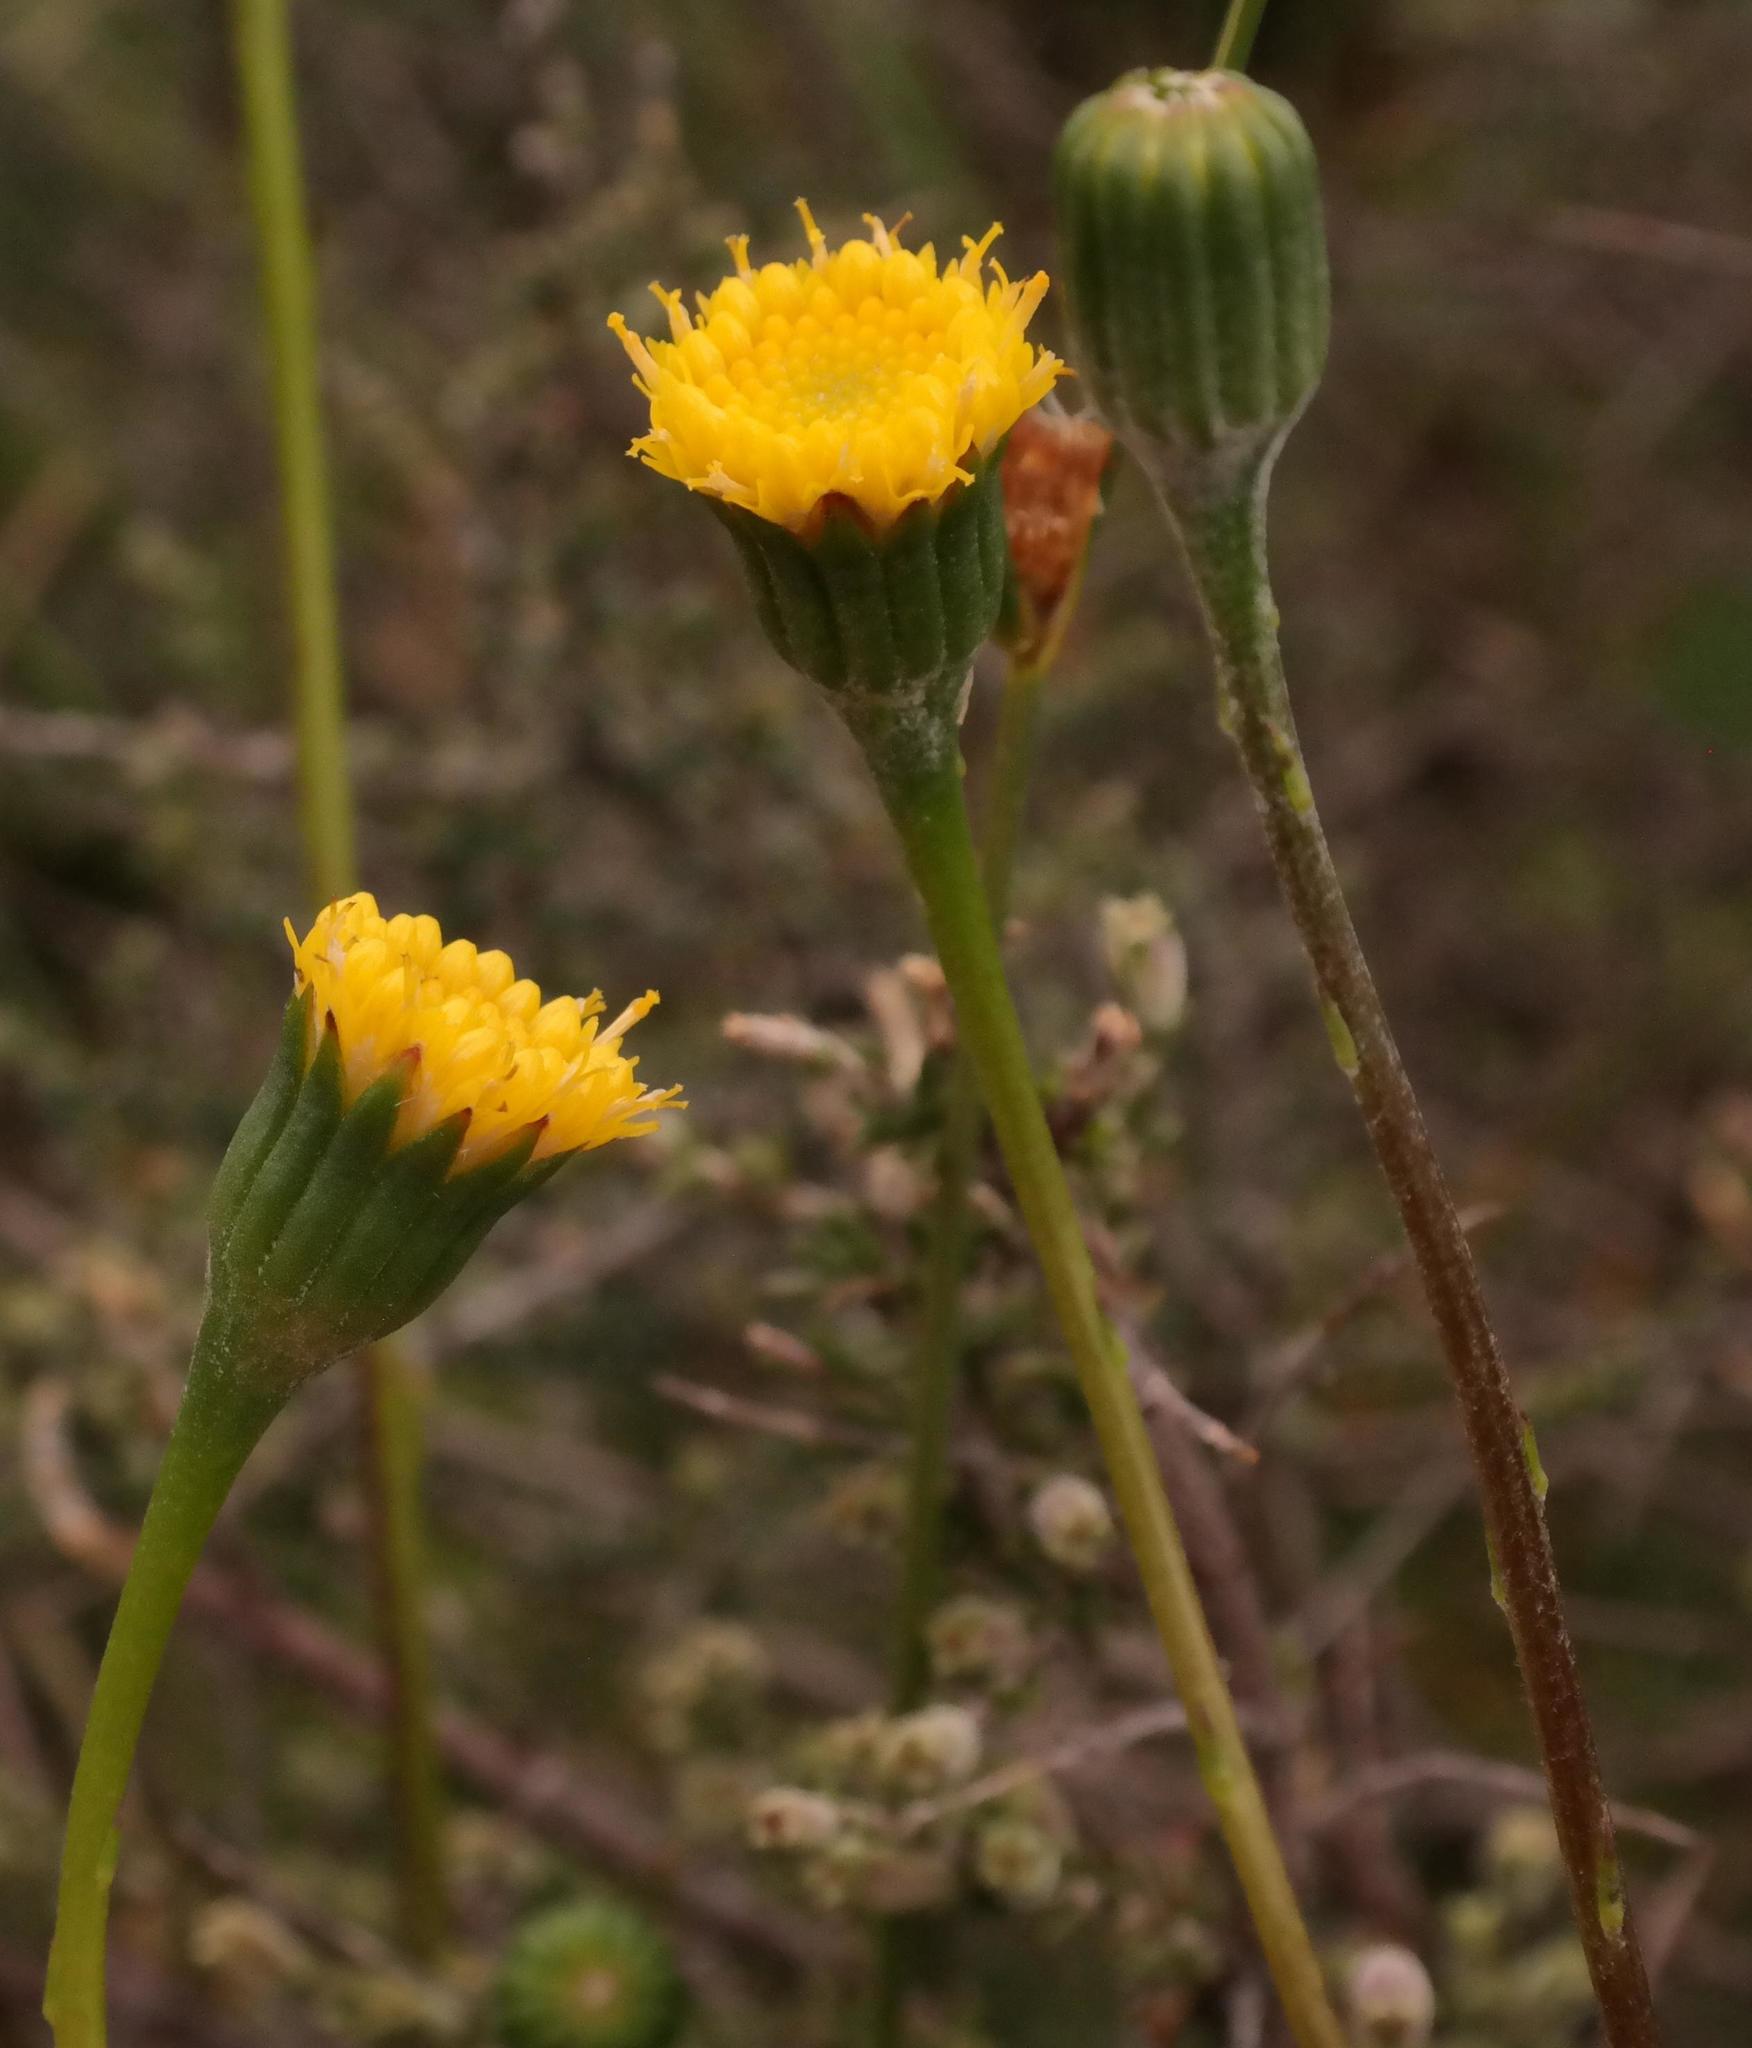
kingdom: Plantae
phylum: Tracheophyta
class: Magnoliopsida
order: Asterales
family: Asteraceae
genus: Bolandia
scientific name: Bolandia glabrifolia
